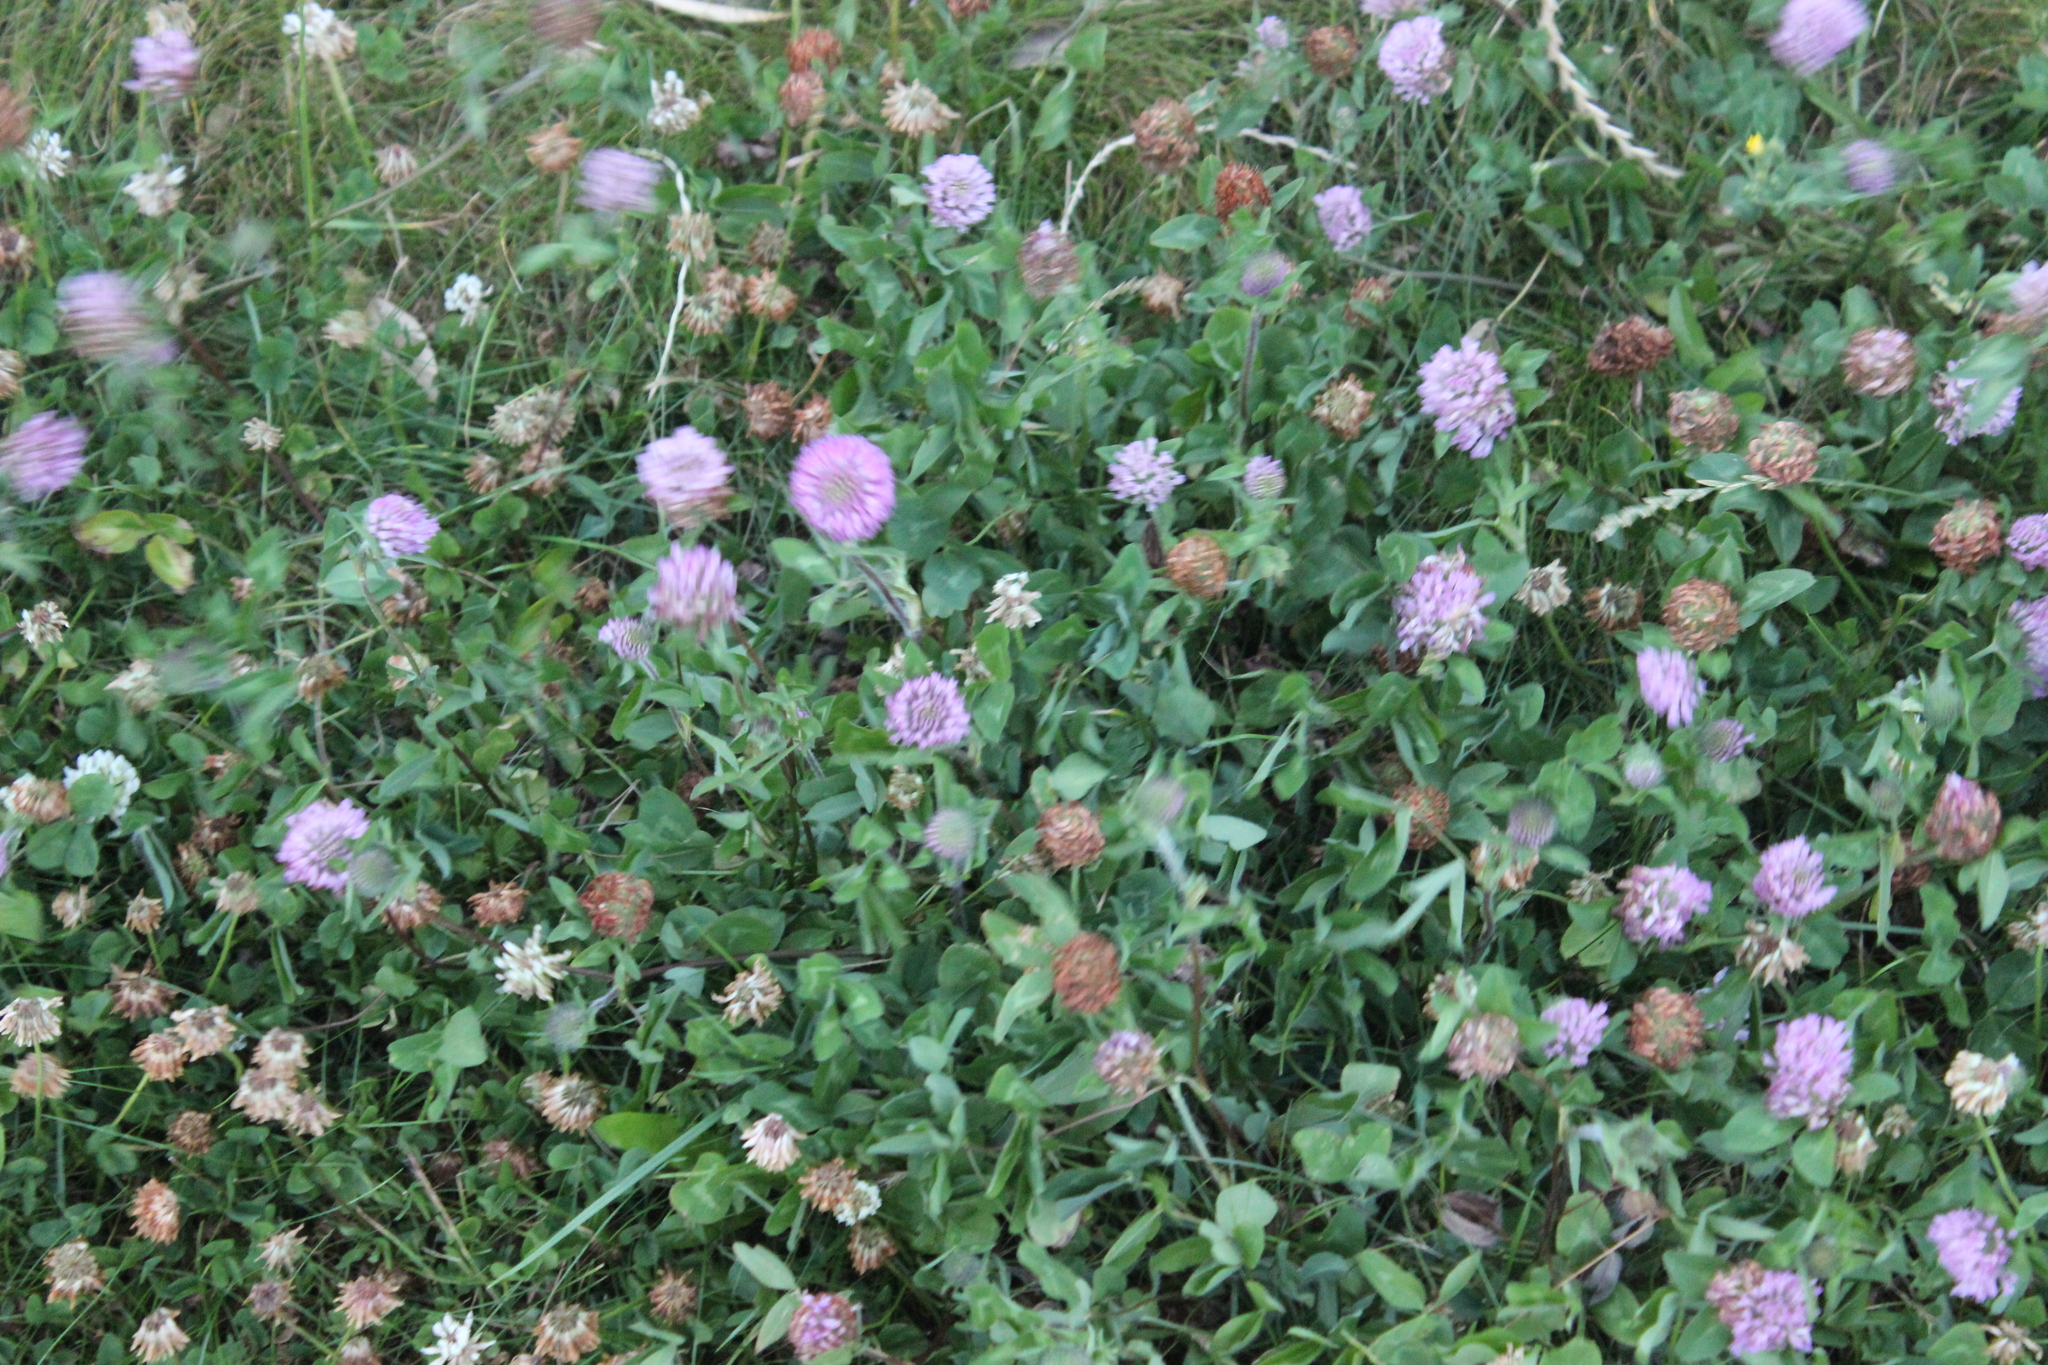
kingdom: Plantae
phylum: Tracheophyta
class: Magnoliopsida
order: Fabales
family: Fabaceae
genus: Trifolium
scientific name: Trifolium pratense
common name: Red clover
